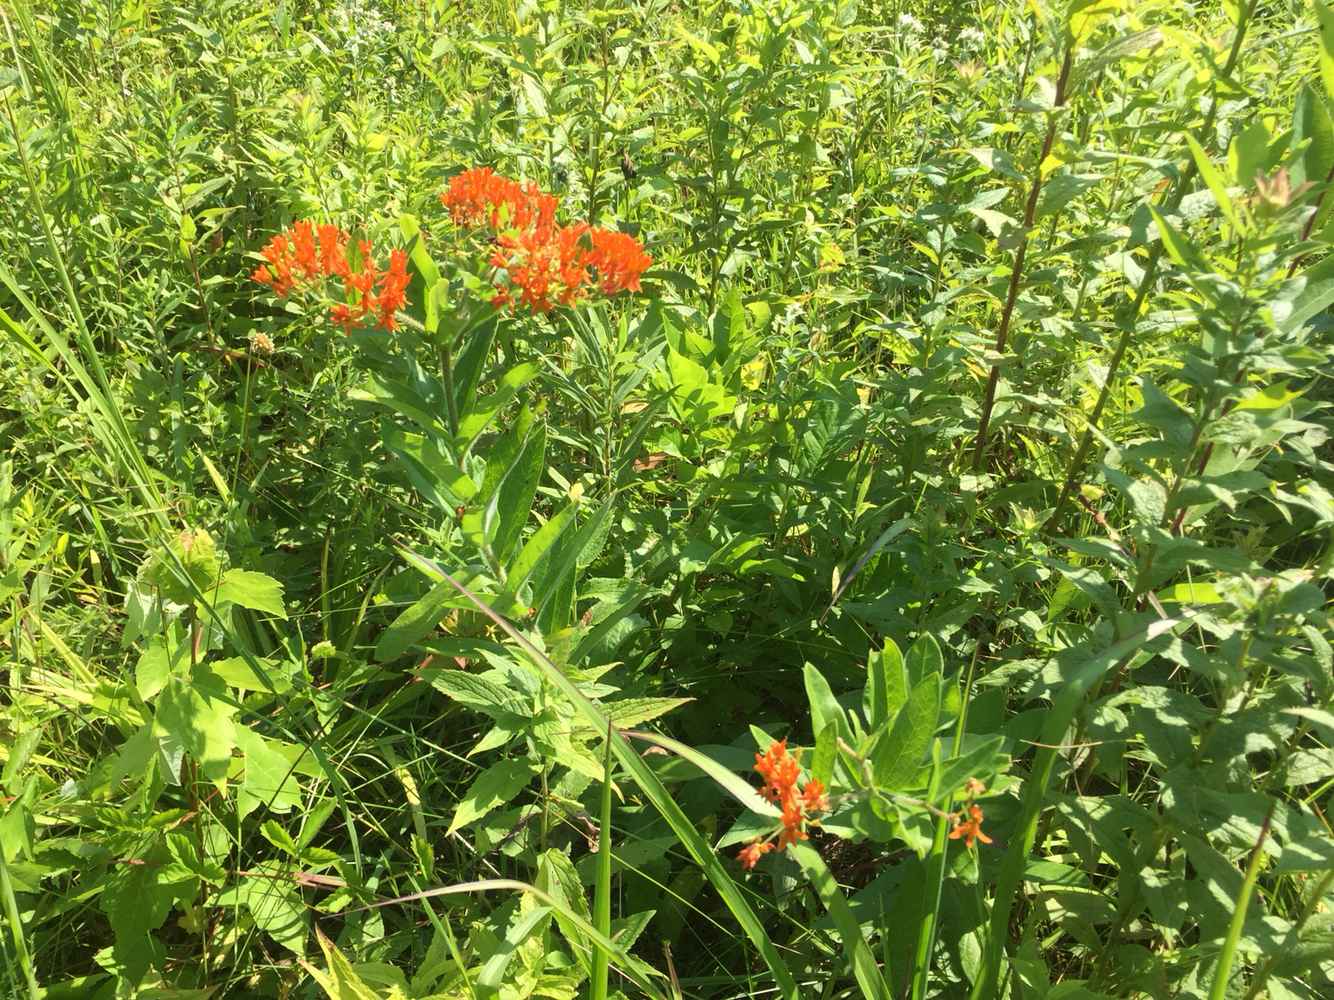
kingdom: Plantae
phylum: Tracheophyta
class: Magnoliopsida
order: Gentianales
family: Apocynaceae
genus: Asclepias
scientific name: Asclepias tuberosa
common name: Butterfly milkweed
